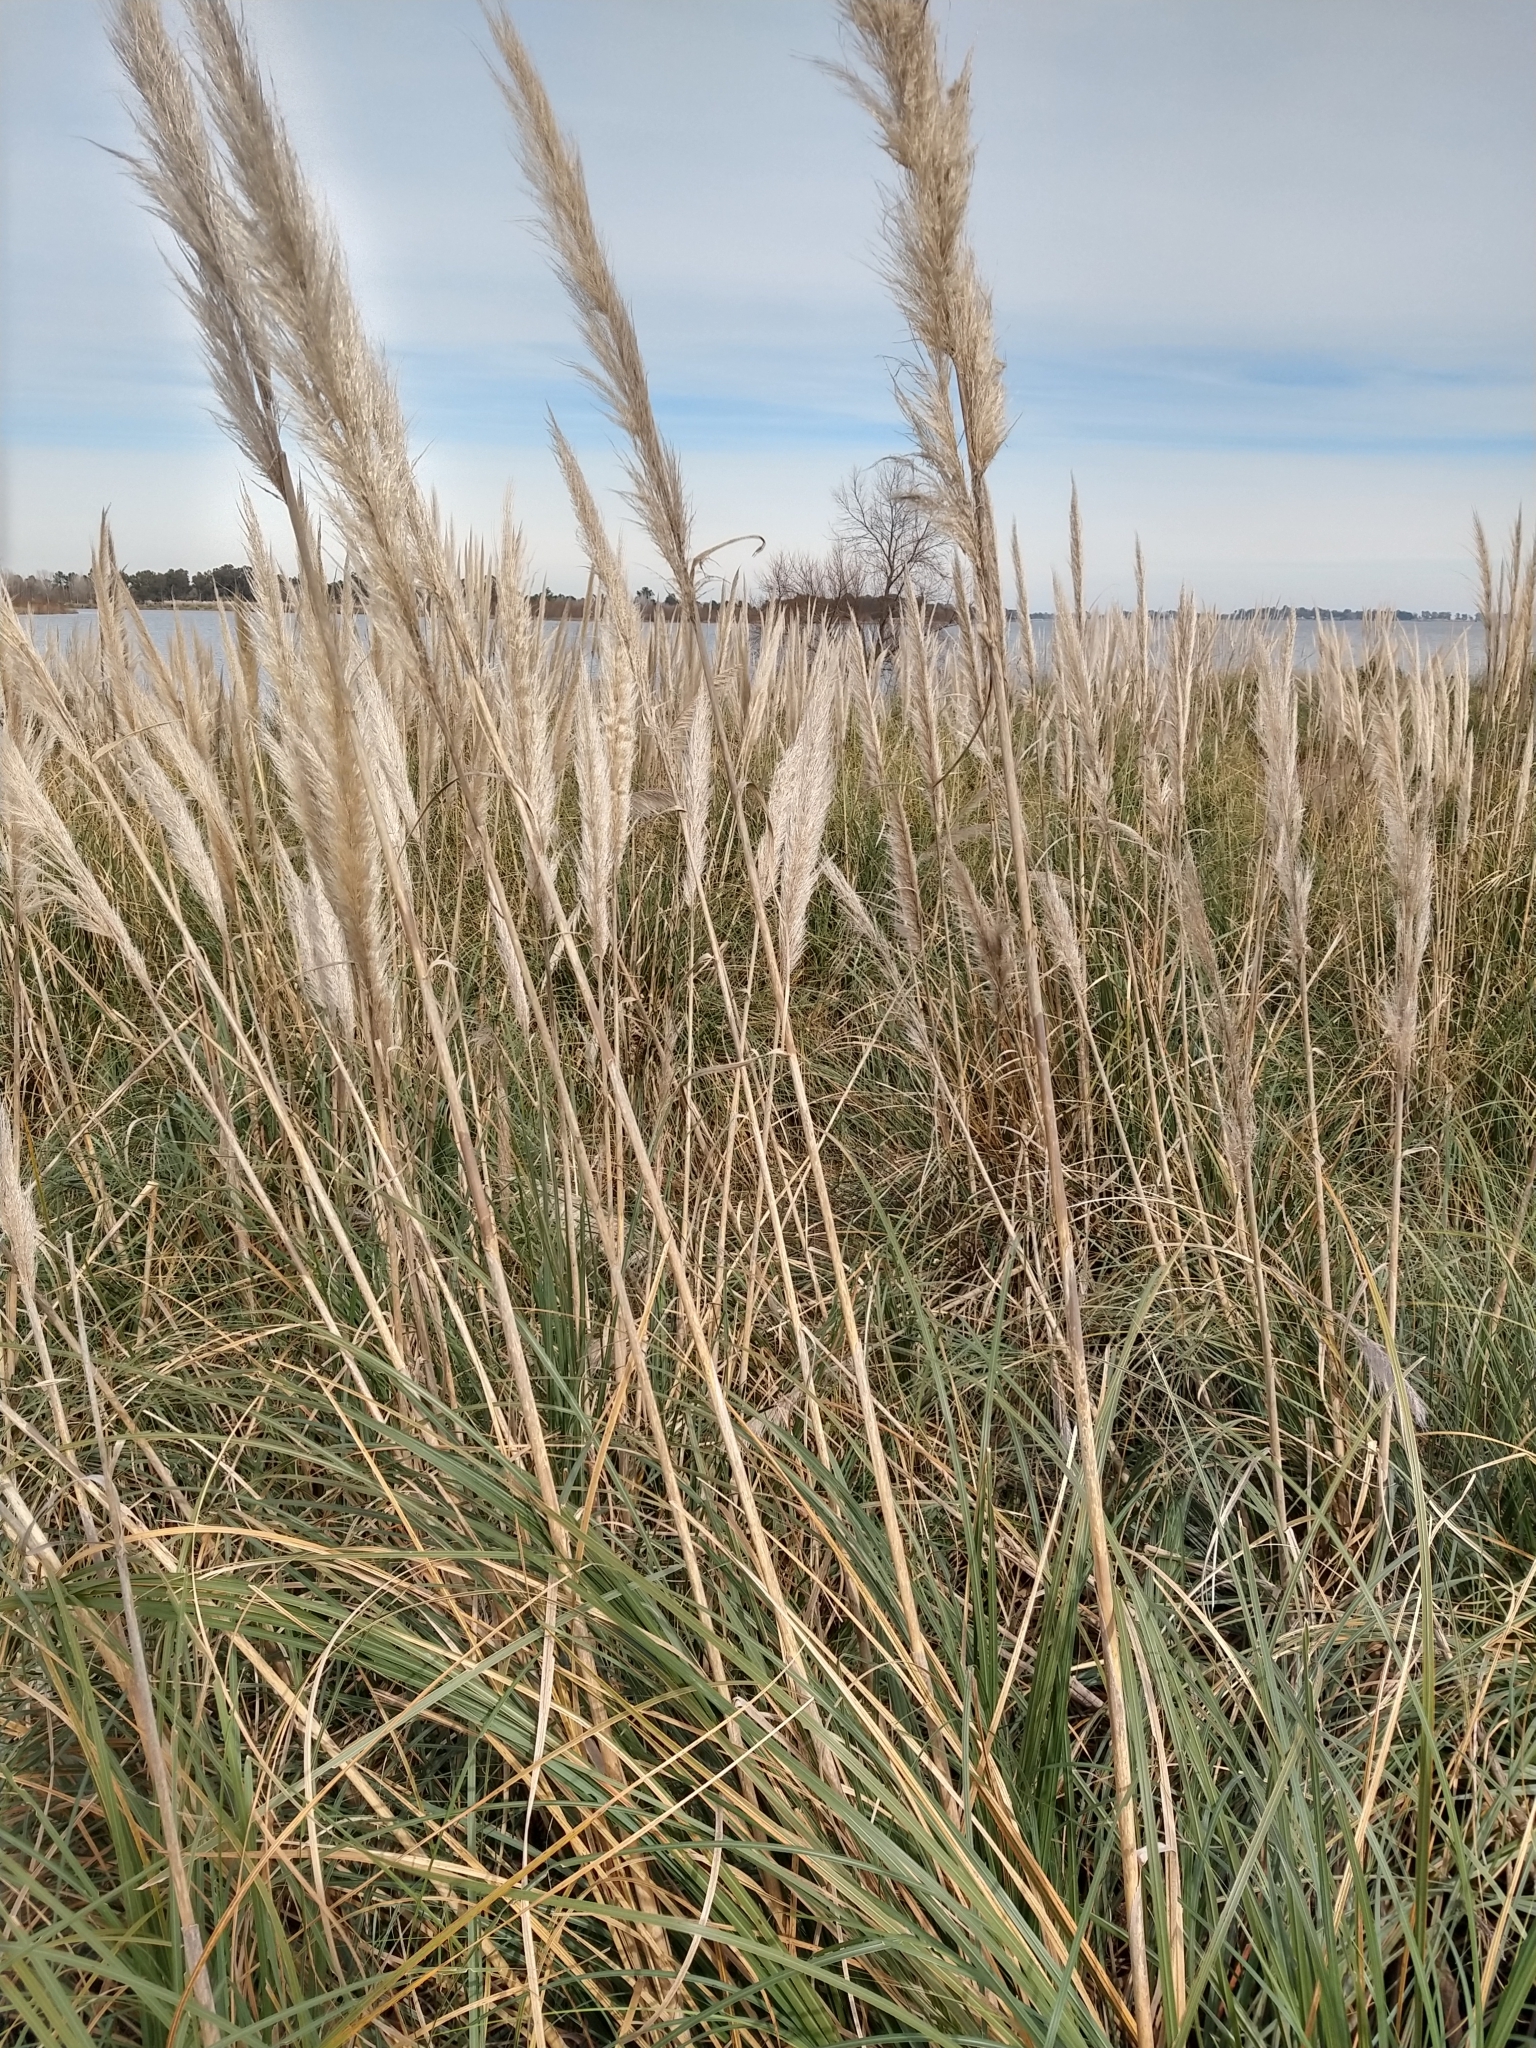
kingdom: Plantae
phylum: Tracheophyta
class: Liliopsida
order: Poales
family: Poaceae
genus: Cortaderia
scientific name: Cortaderia selloana
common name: Uruguayan pampas grass
